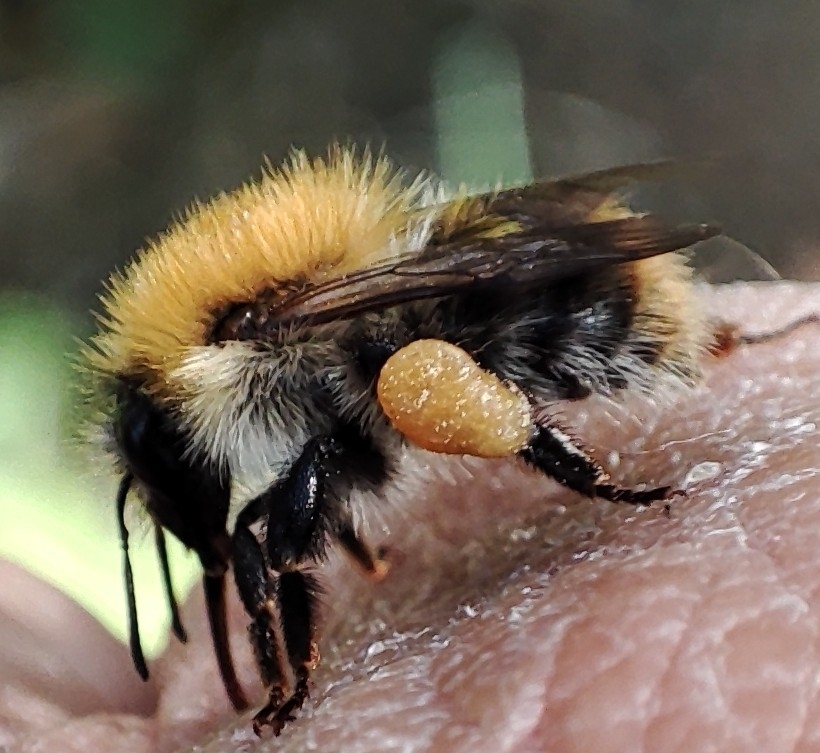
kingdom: Animalia
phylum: Arthropoda
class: Insecta
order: Hymenoptera
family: Apidae
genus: Bombus
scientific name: Bombus pascuorum
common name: Common carder bee
